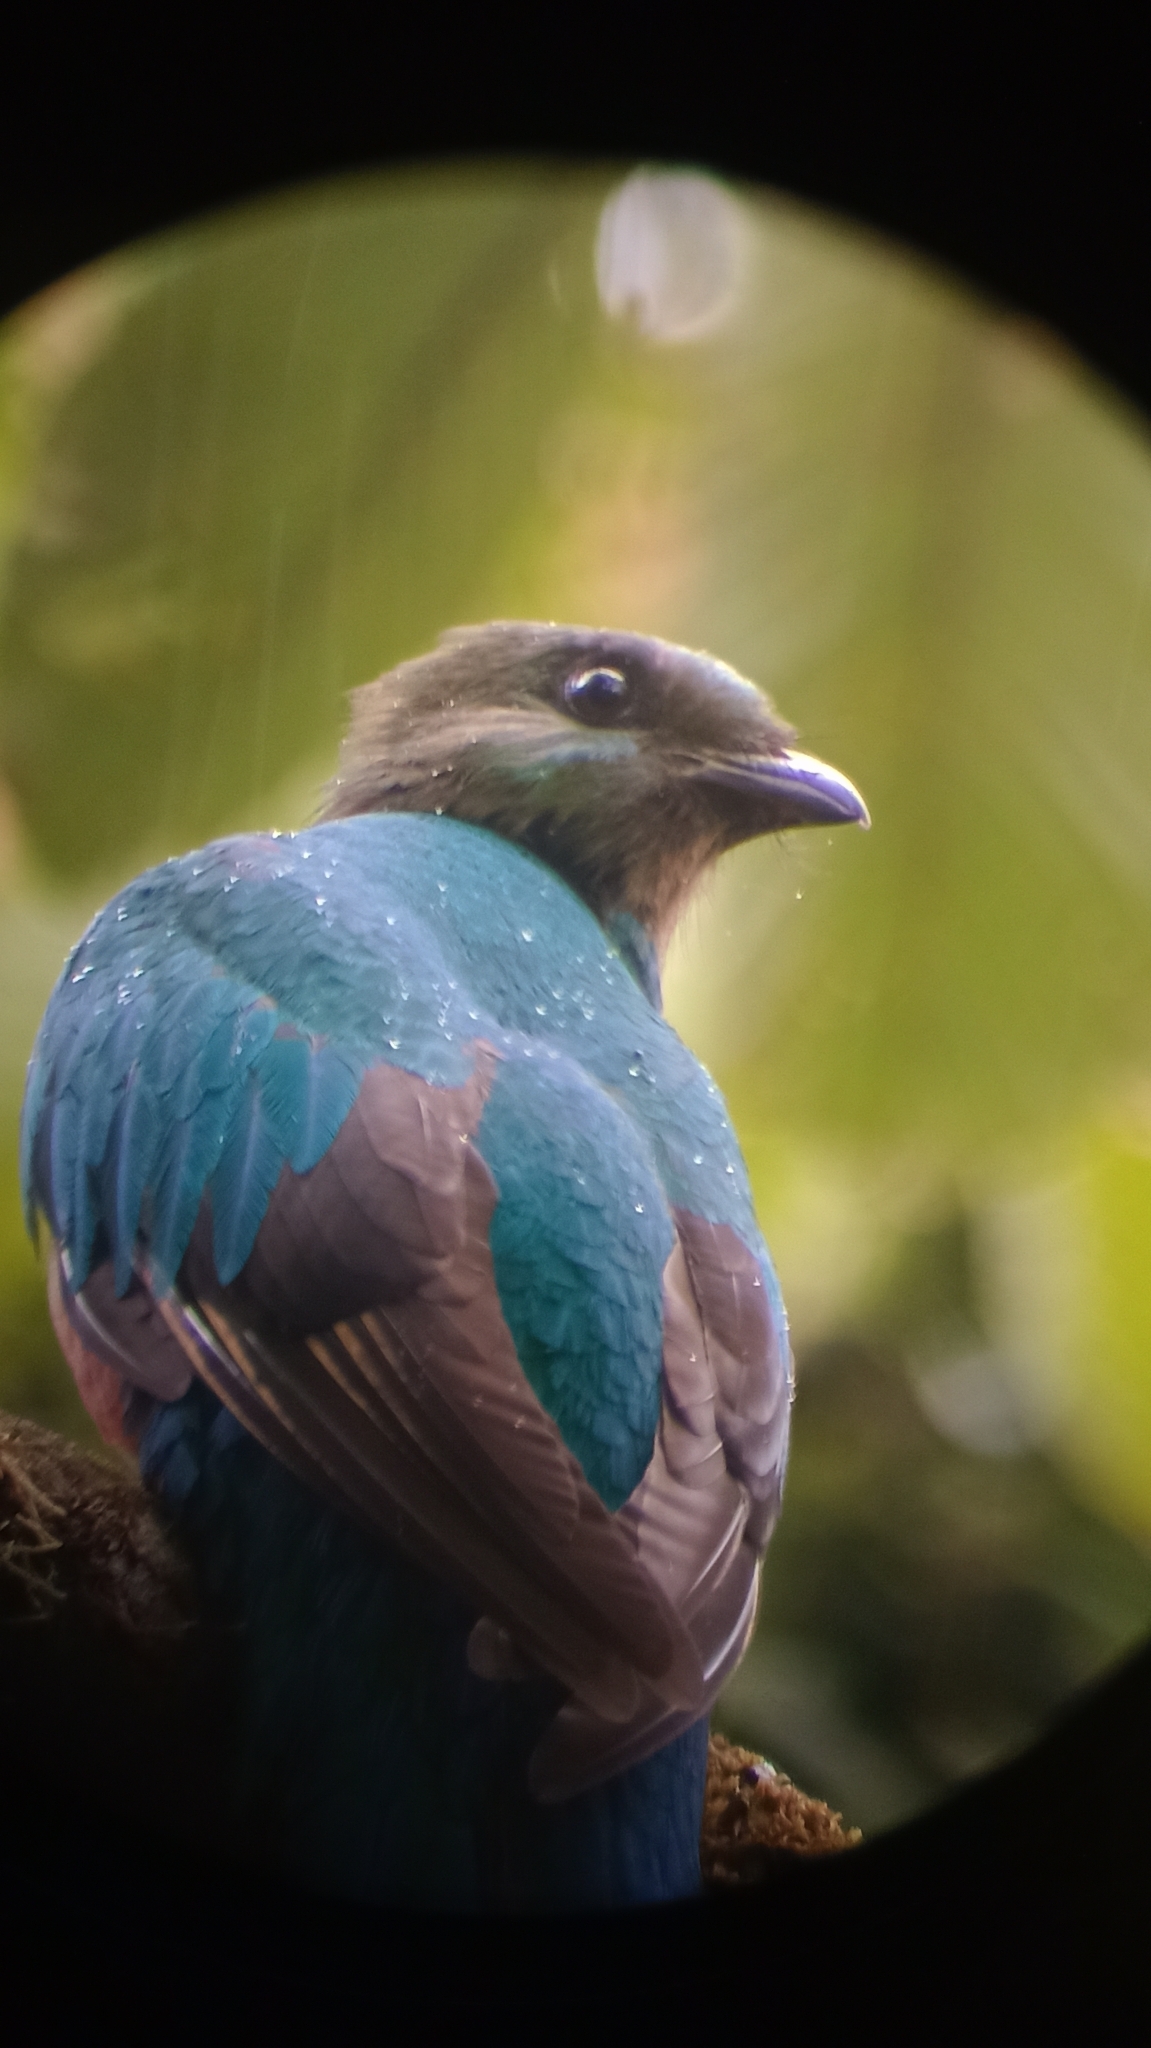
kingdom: Animalia
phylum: Chordata
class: Aves
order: Trogoniformes
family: Trogonidae
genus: Pharomachrus
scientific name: Pharomachrus mocinno
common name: Resplendent quetzal
